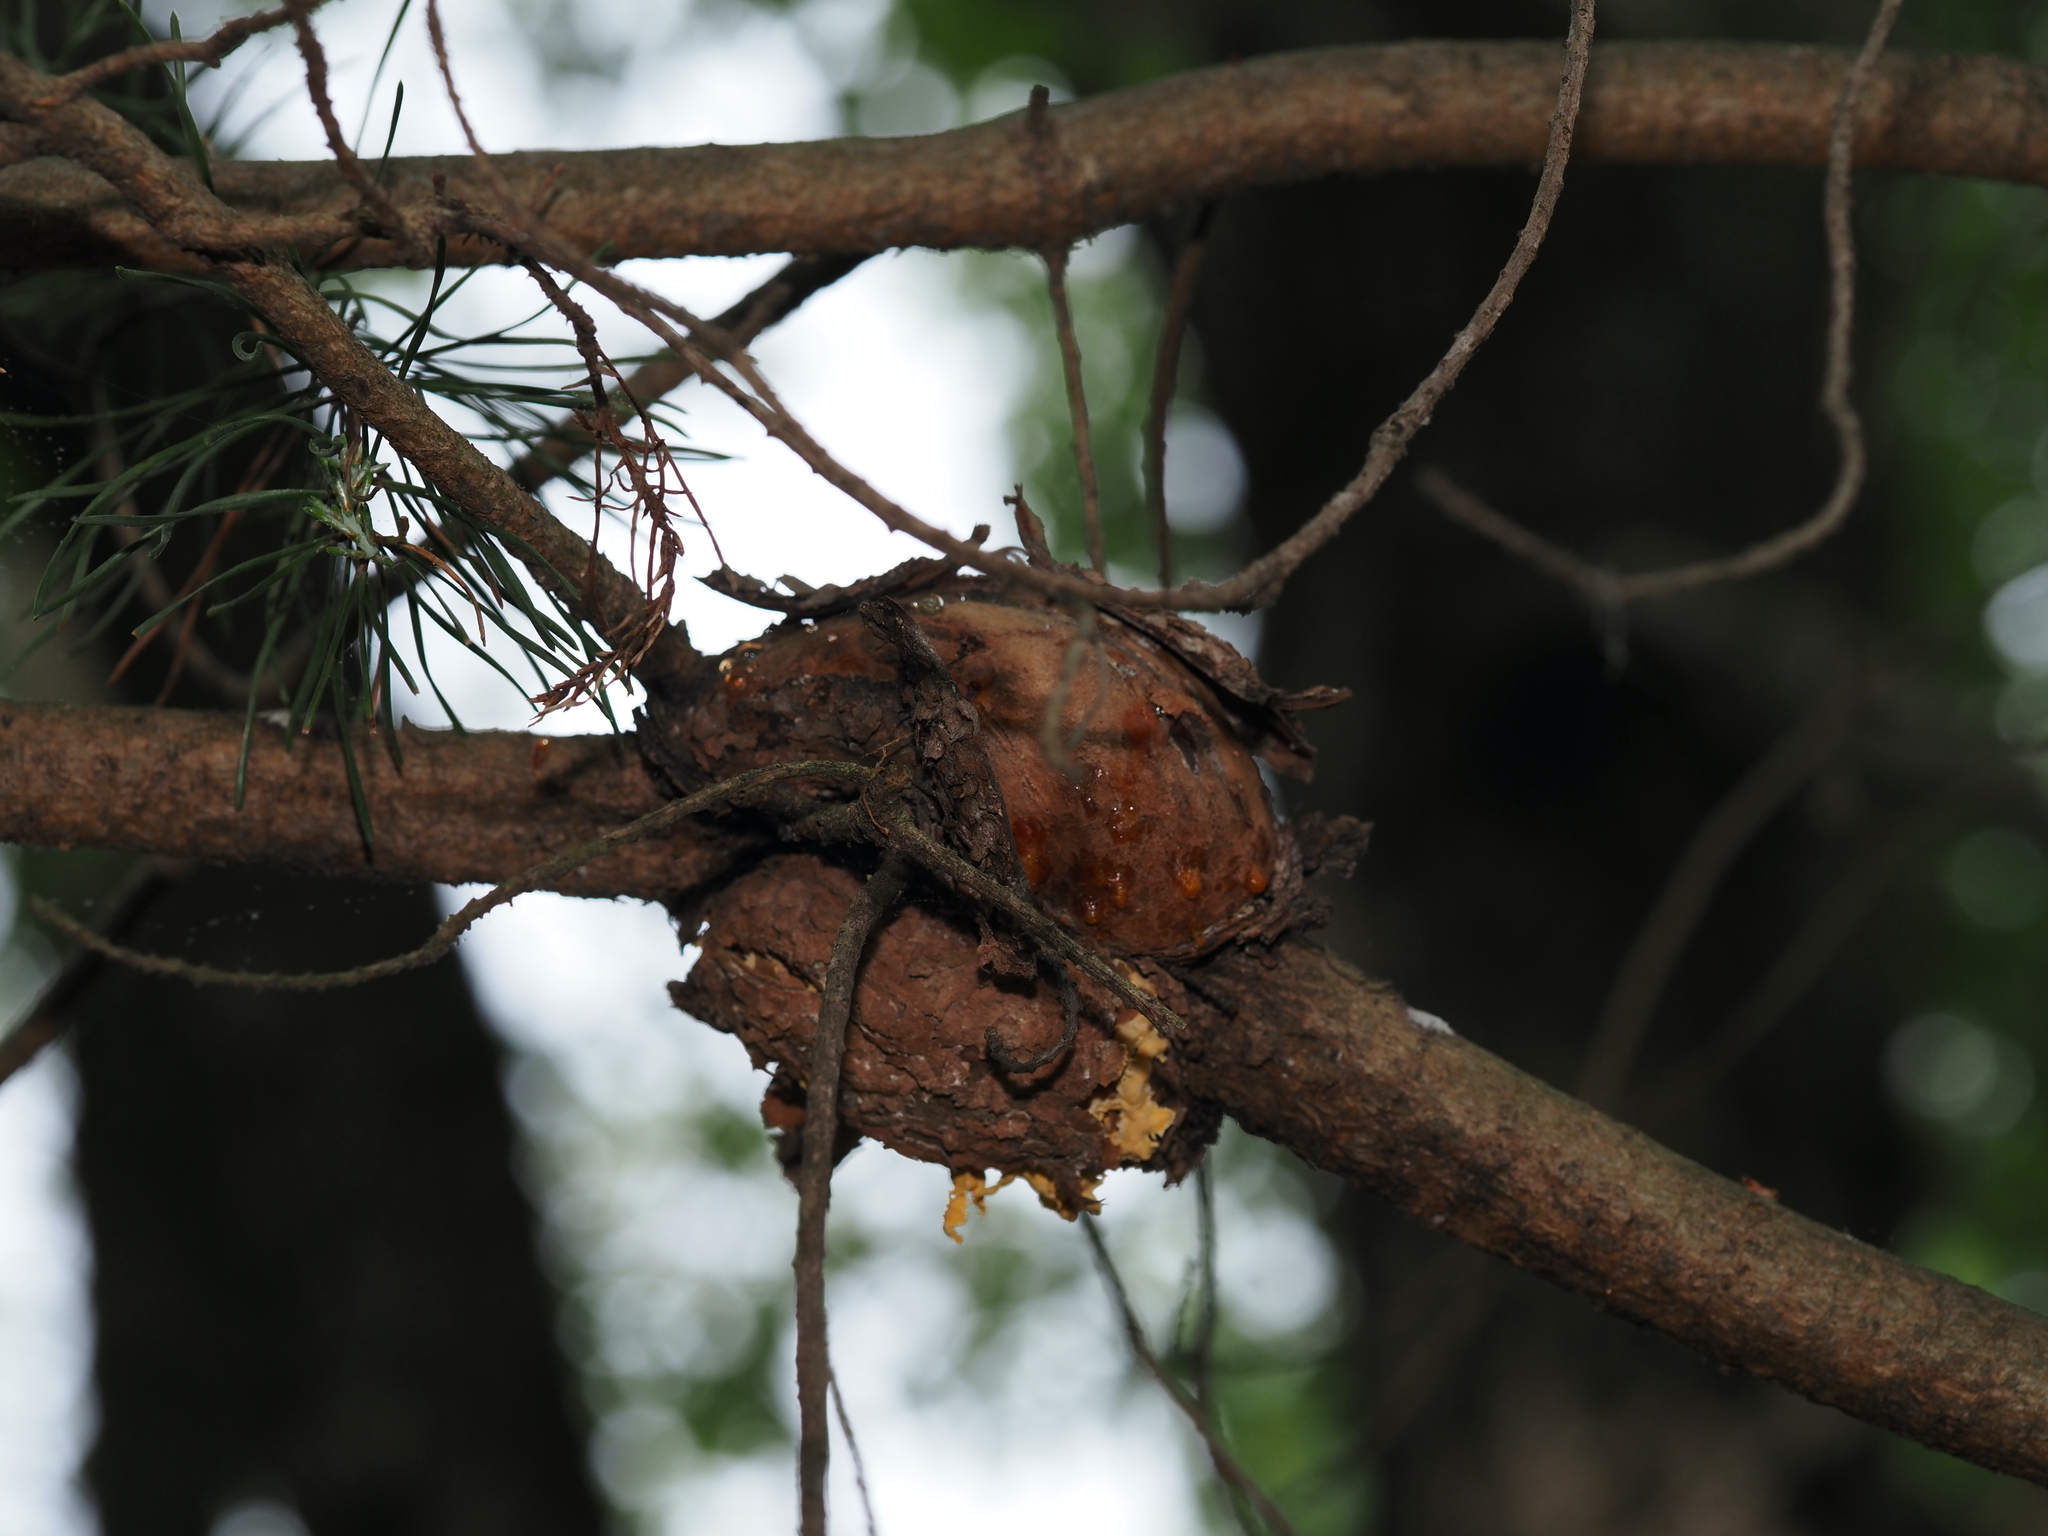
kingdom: Fungi
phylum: Basidiomycota
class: Pucciniomycetes
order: Pucciniales
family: Cronartiaceae
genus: Cronartium
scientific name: Cronartium quercuum
